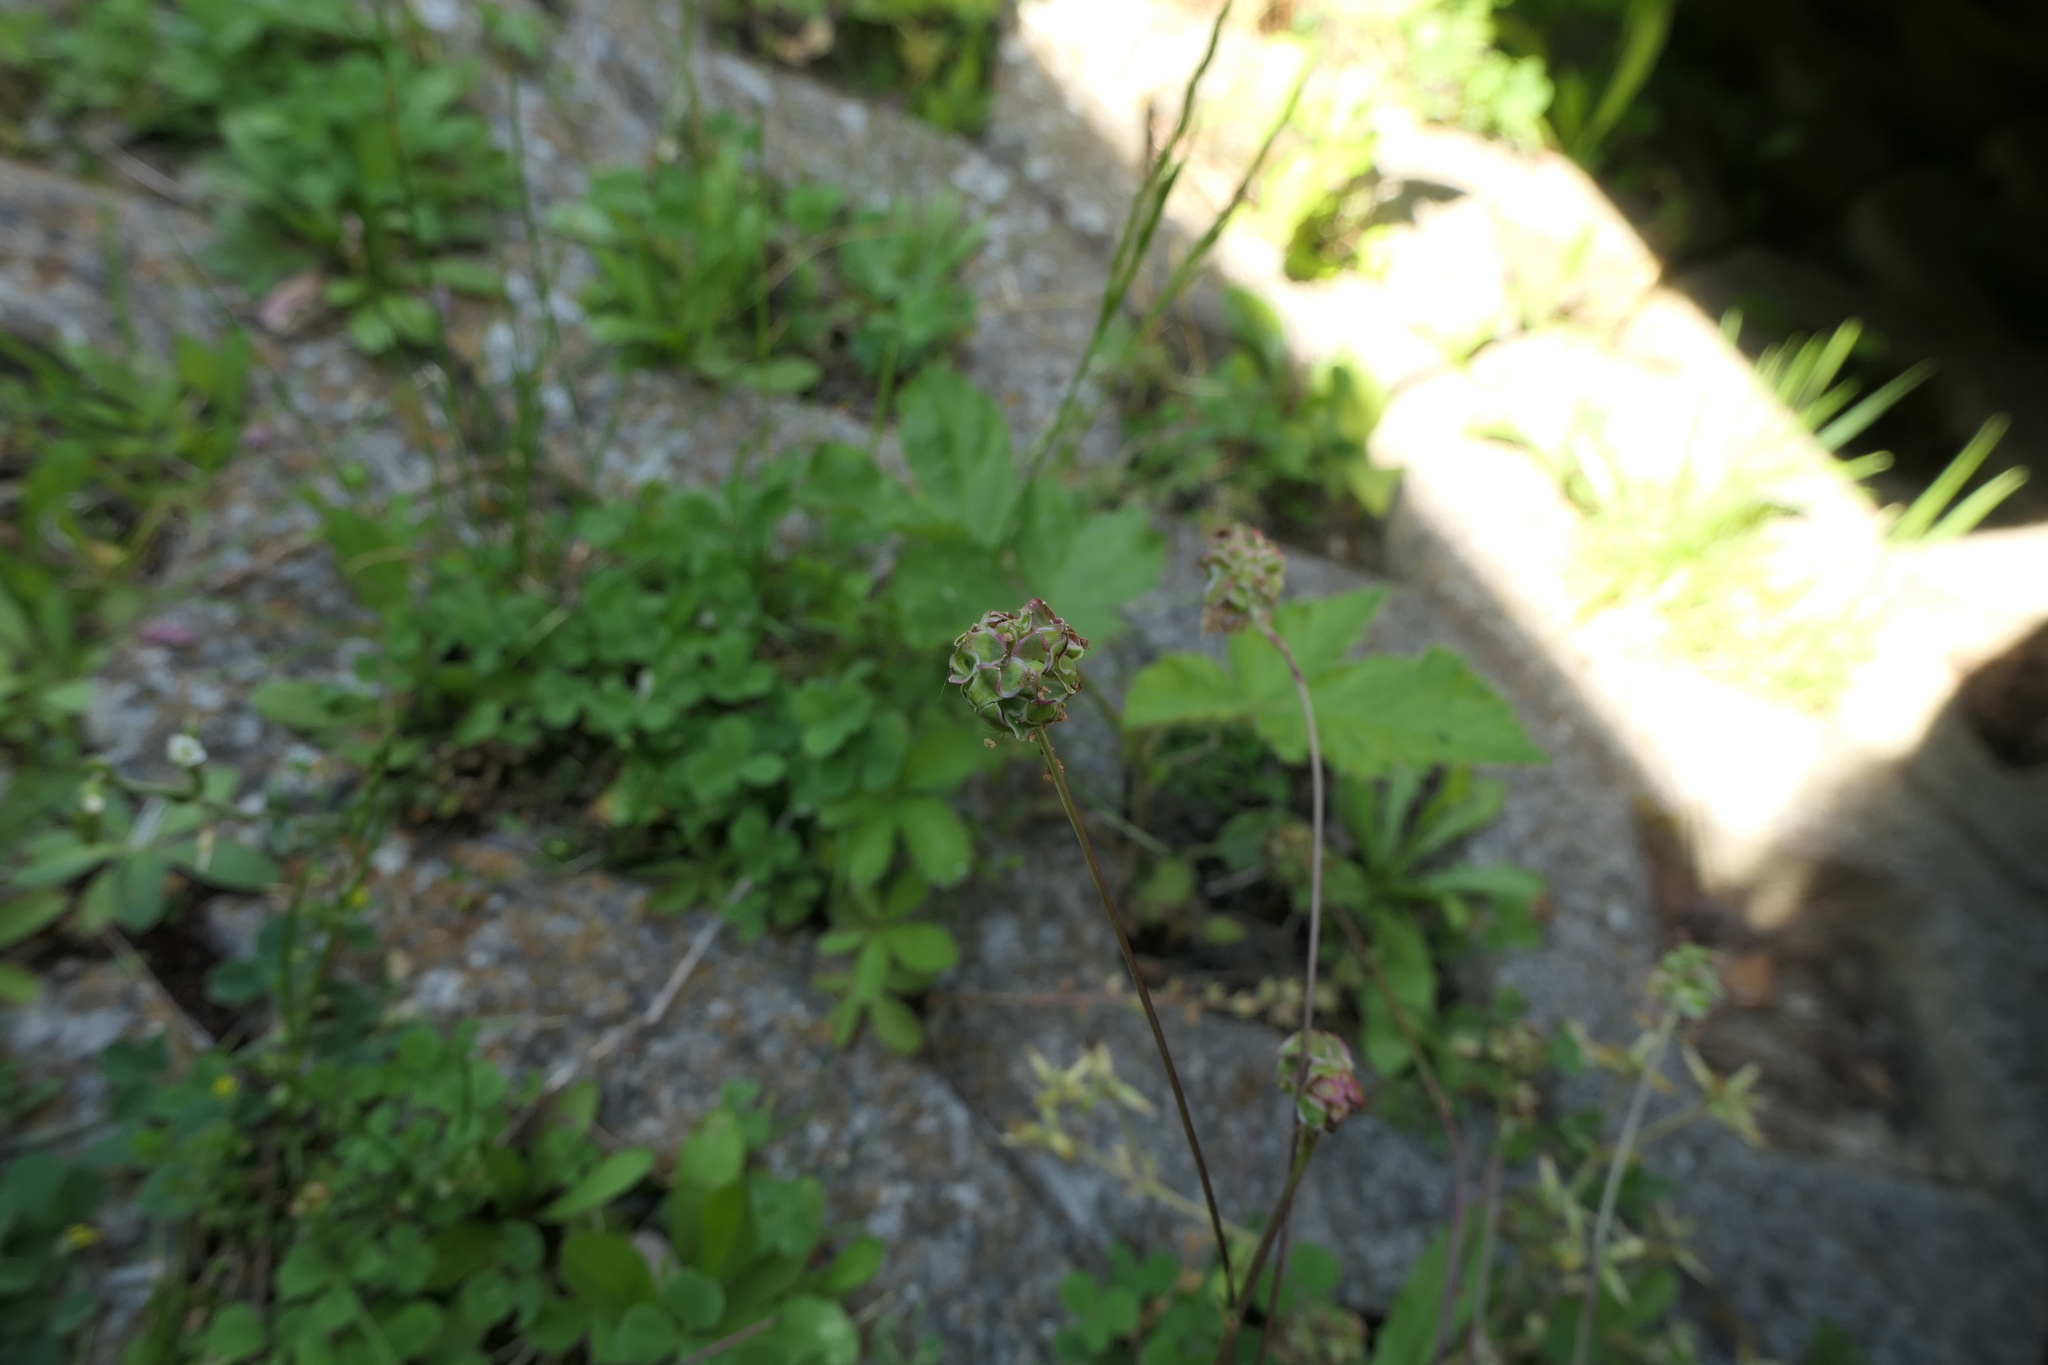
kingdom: Plantae
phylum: Tracheophyta
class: Magnoliopsida
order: Rosales
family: Rosaceae
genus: Poterium
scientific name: Poterium sanguisorba
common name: Salad burnet
